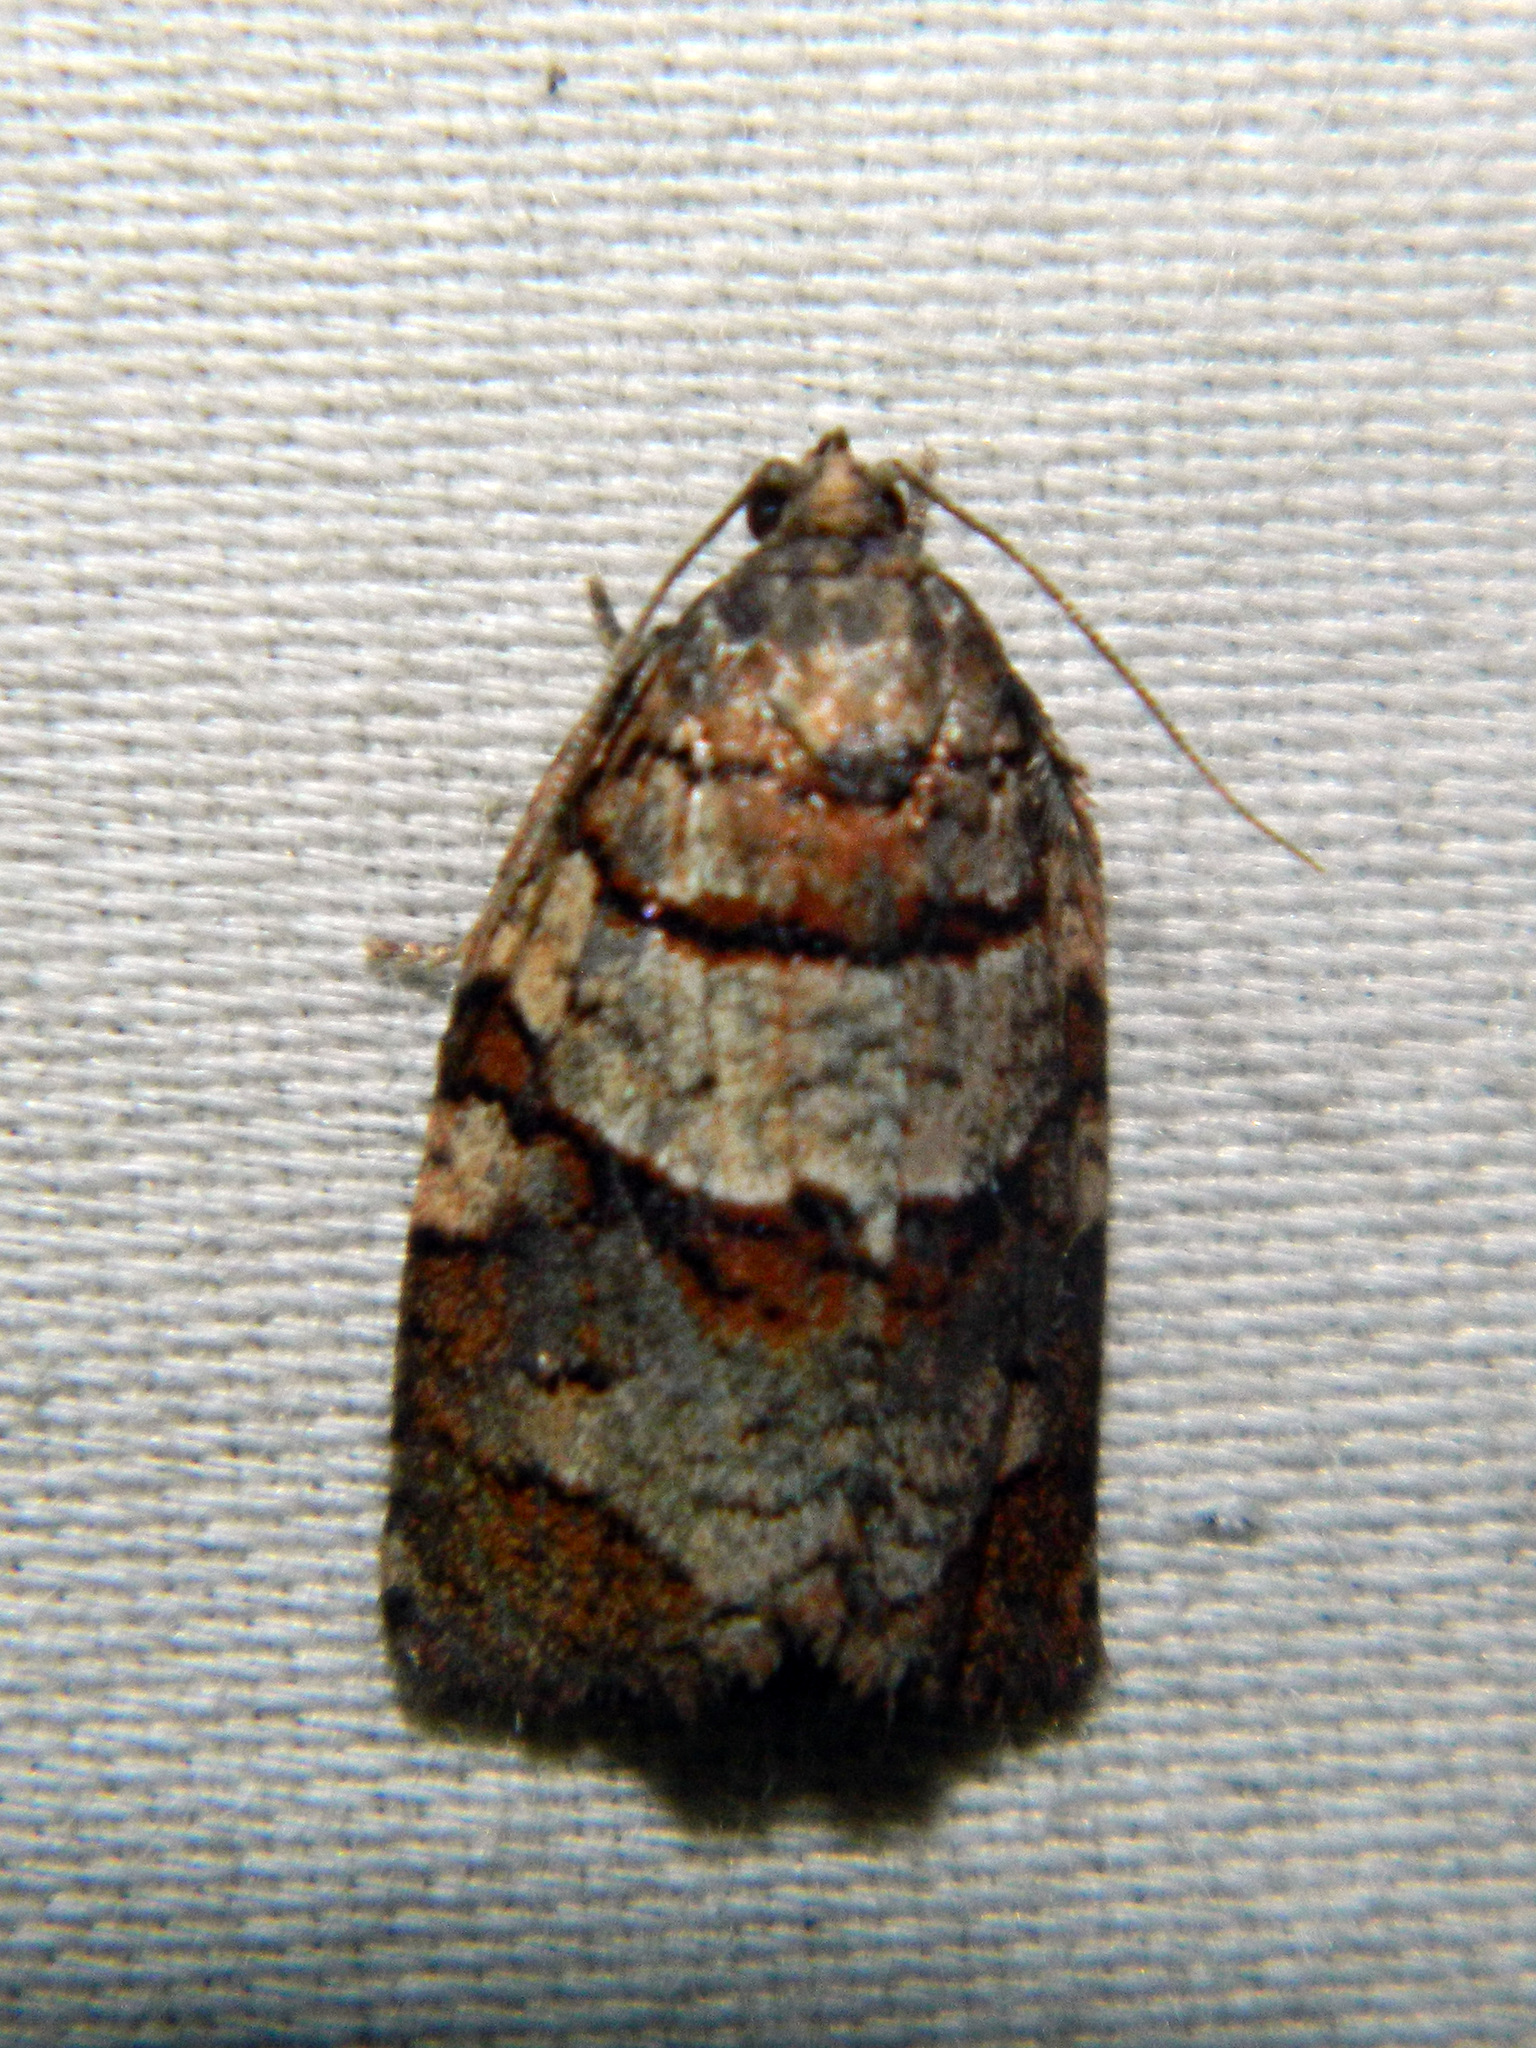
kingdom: Animalia
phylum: Arthropoda
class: Insecta
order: Lepidoptera
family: Tortricidae
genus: Archips
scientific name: Archips alberta
